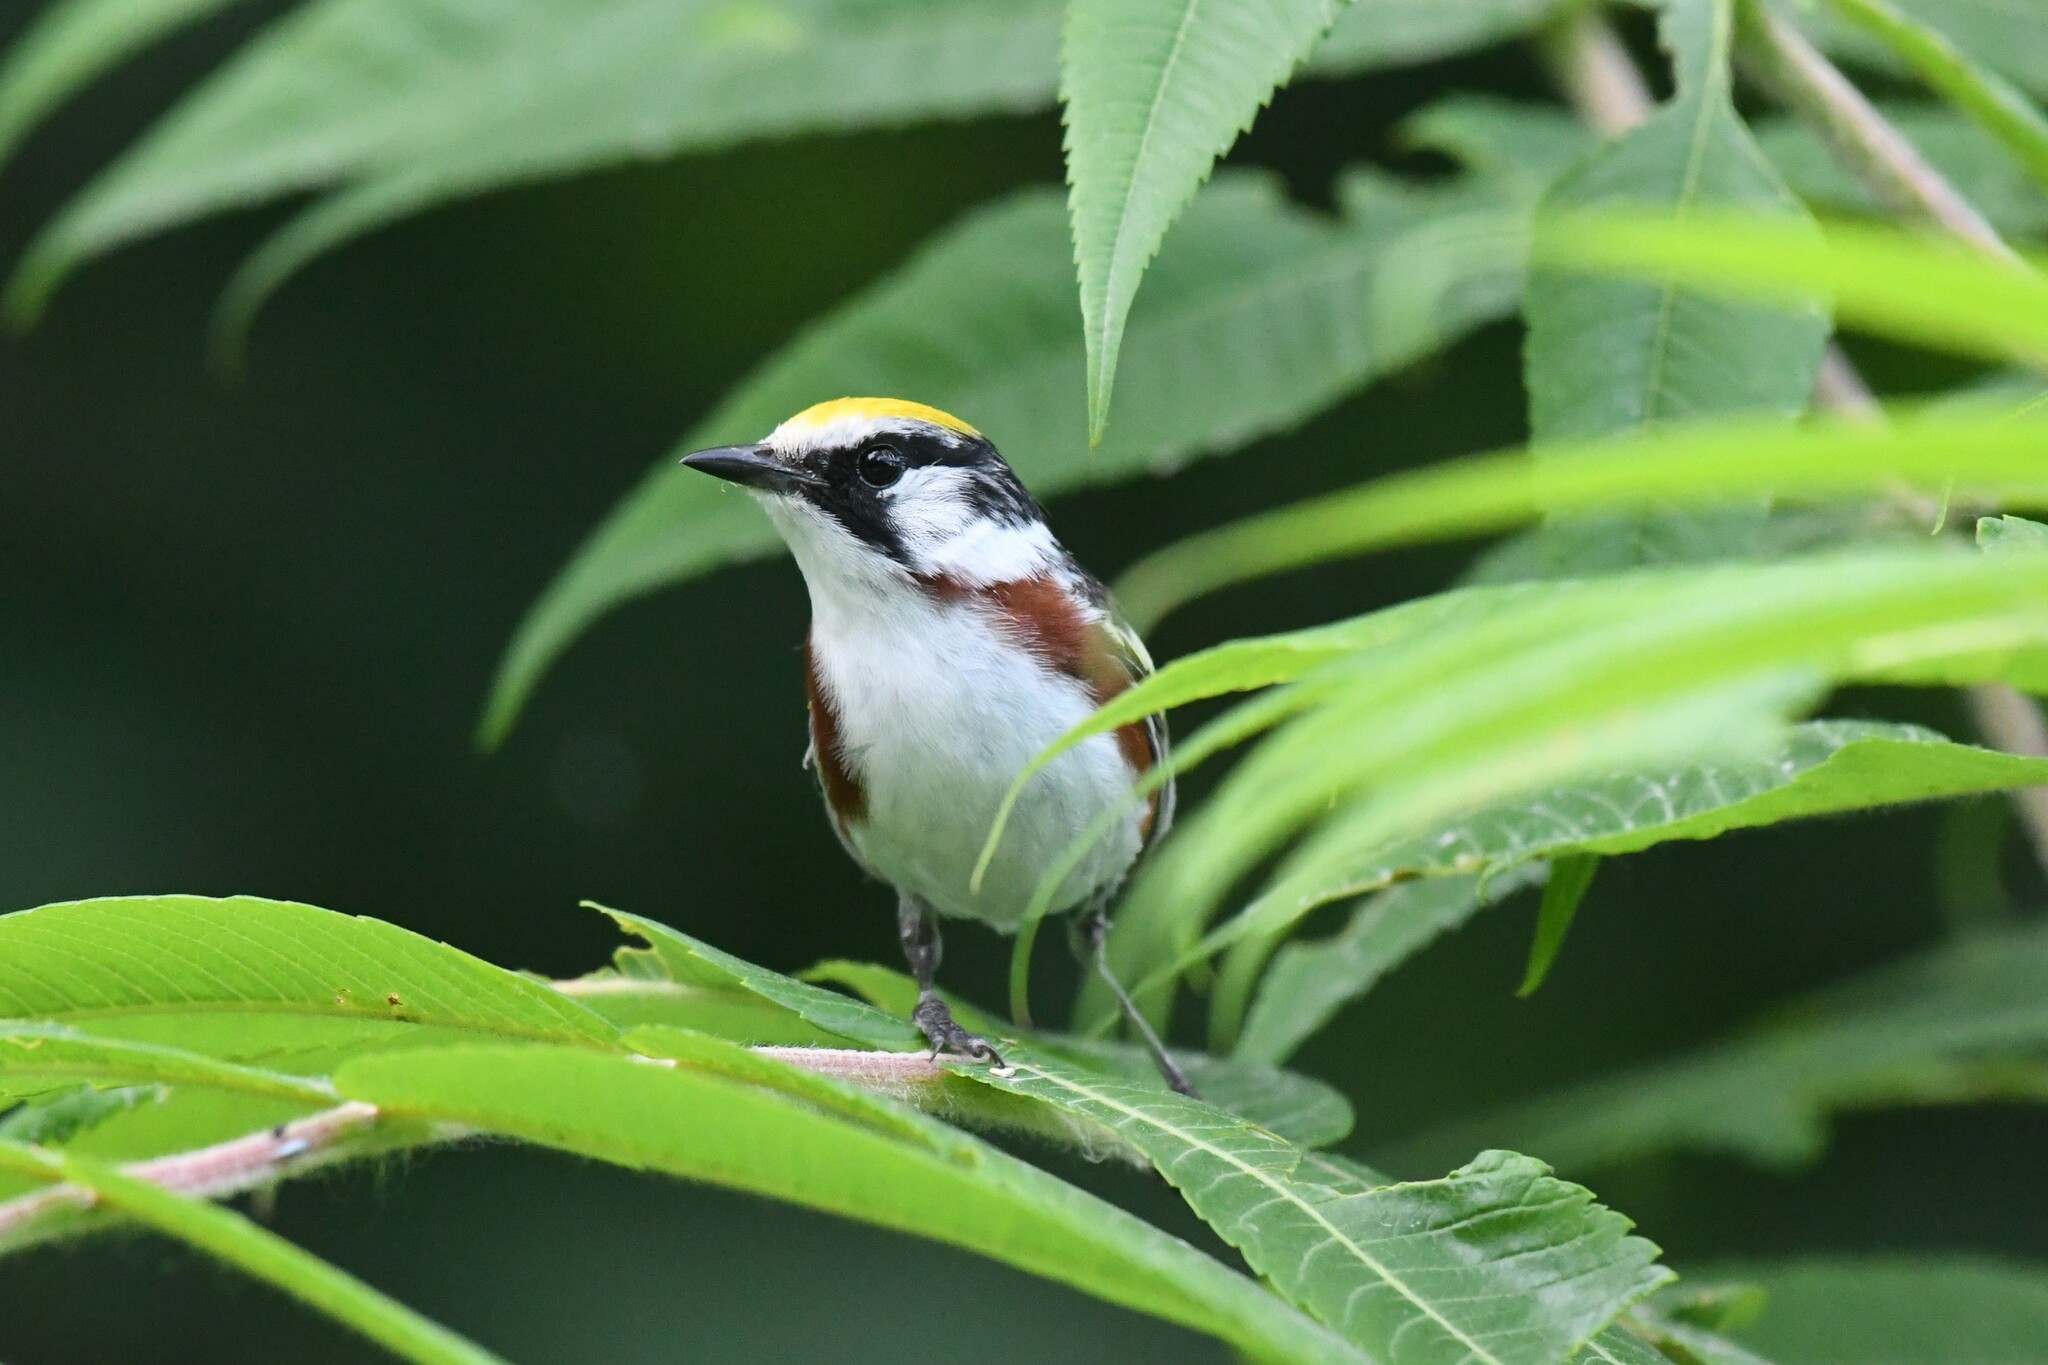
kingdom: Animalia
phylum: Chordata
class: Aves
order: Passeriformes
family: Parulidae
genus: Setophaga
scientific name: Setophaga pensylvanica
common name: Chestnut-sided warbler
